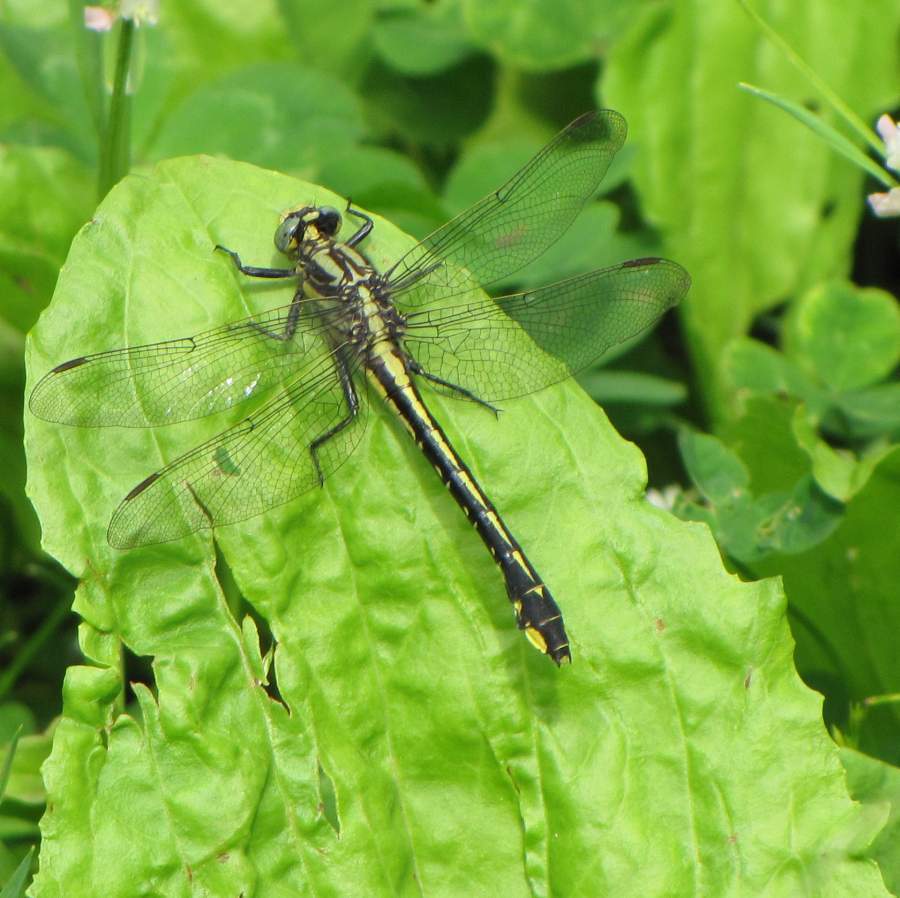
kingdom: Animalia
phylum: Arthropoda
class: Insecta
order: Odonata
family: Gomphidae
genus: Gomphurus
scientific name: Gomphurus fraternus
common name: Midland clubtail
